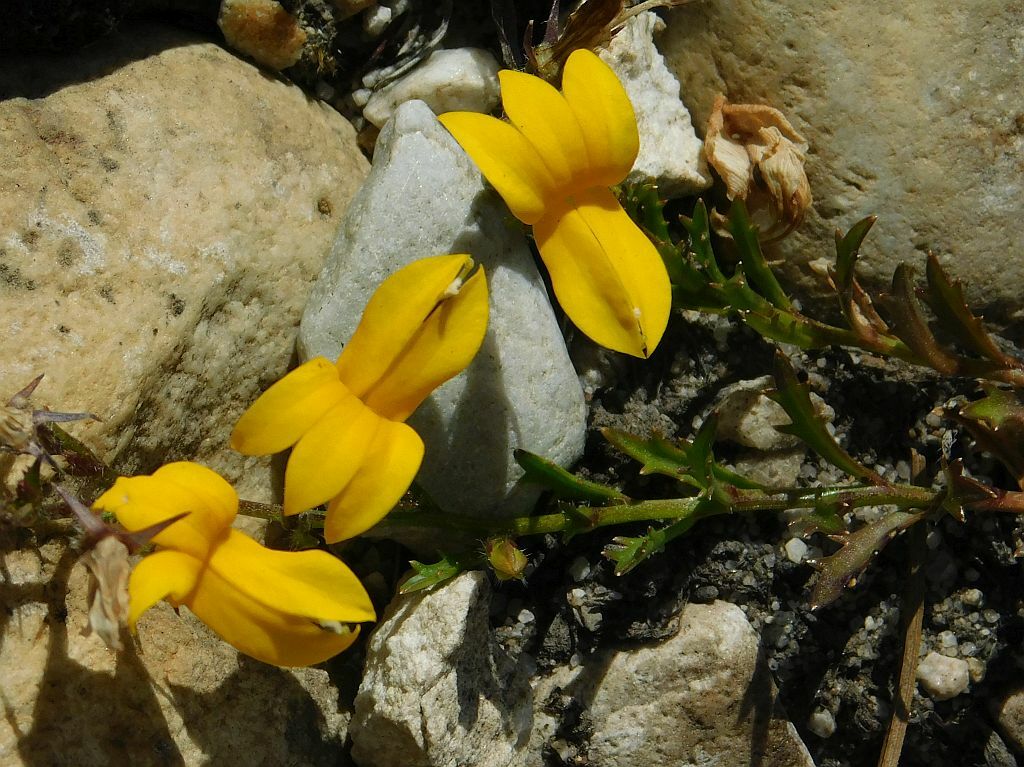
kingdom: Plantae
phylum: Tracheophyta
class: Magnoliopsida
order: Asterales
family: Campanulaceae
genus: Monopsis
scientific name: Monopsis lutea
